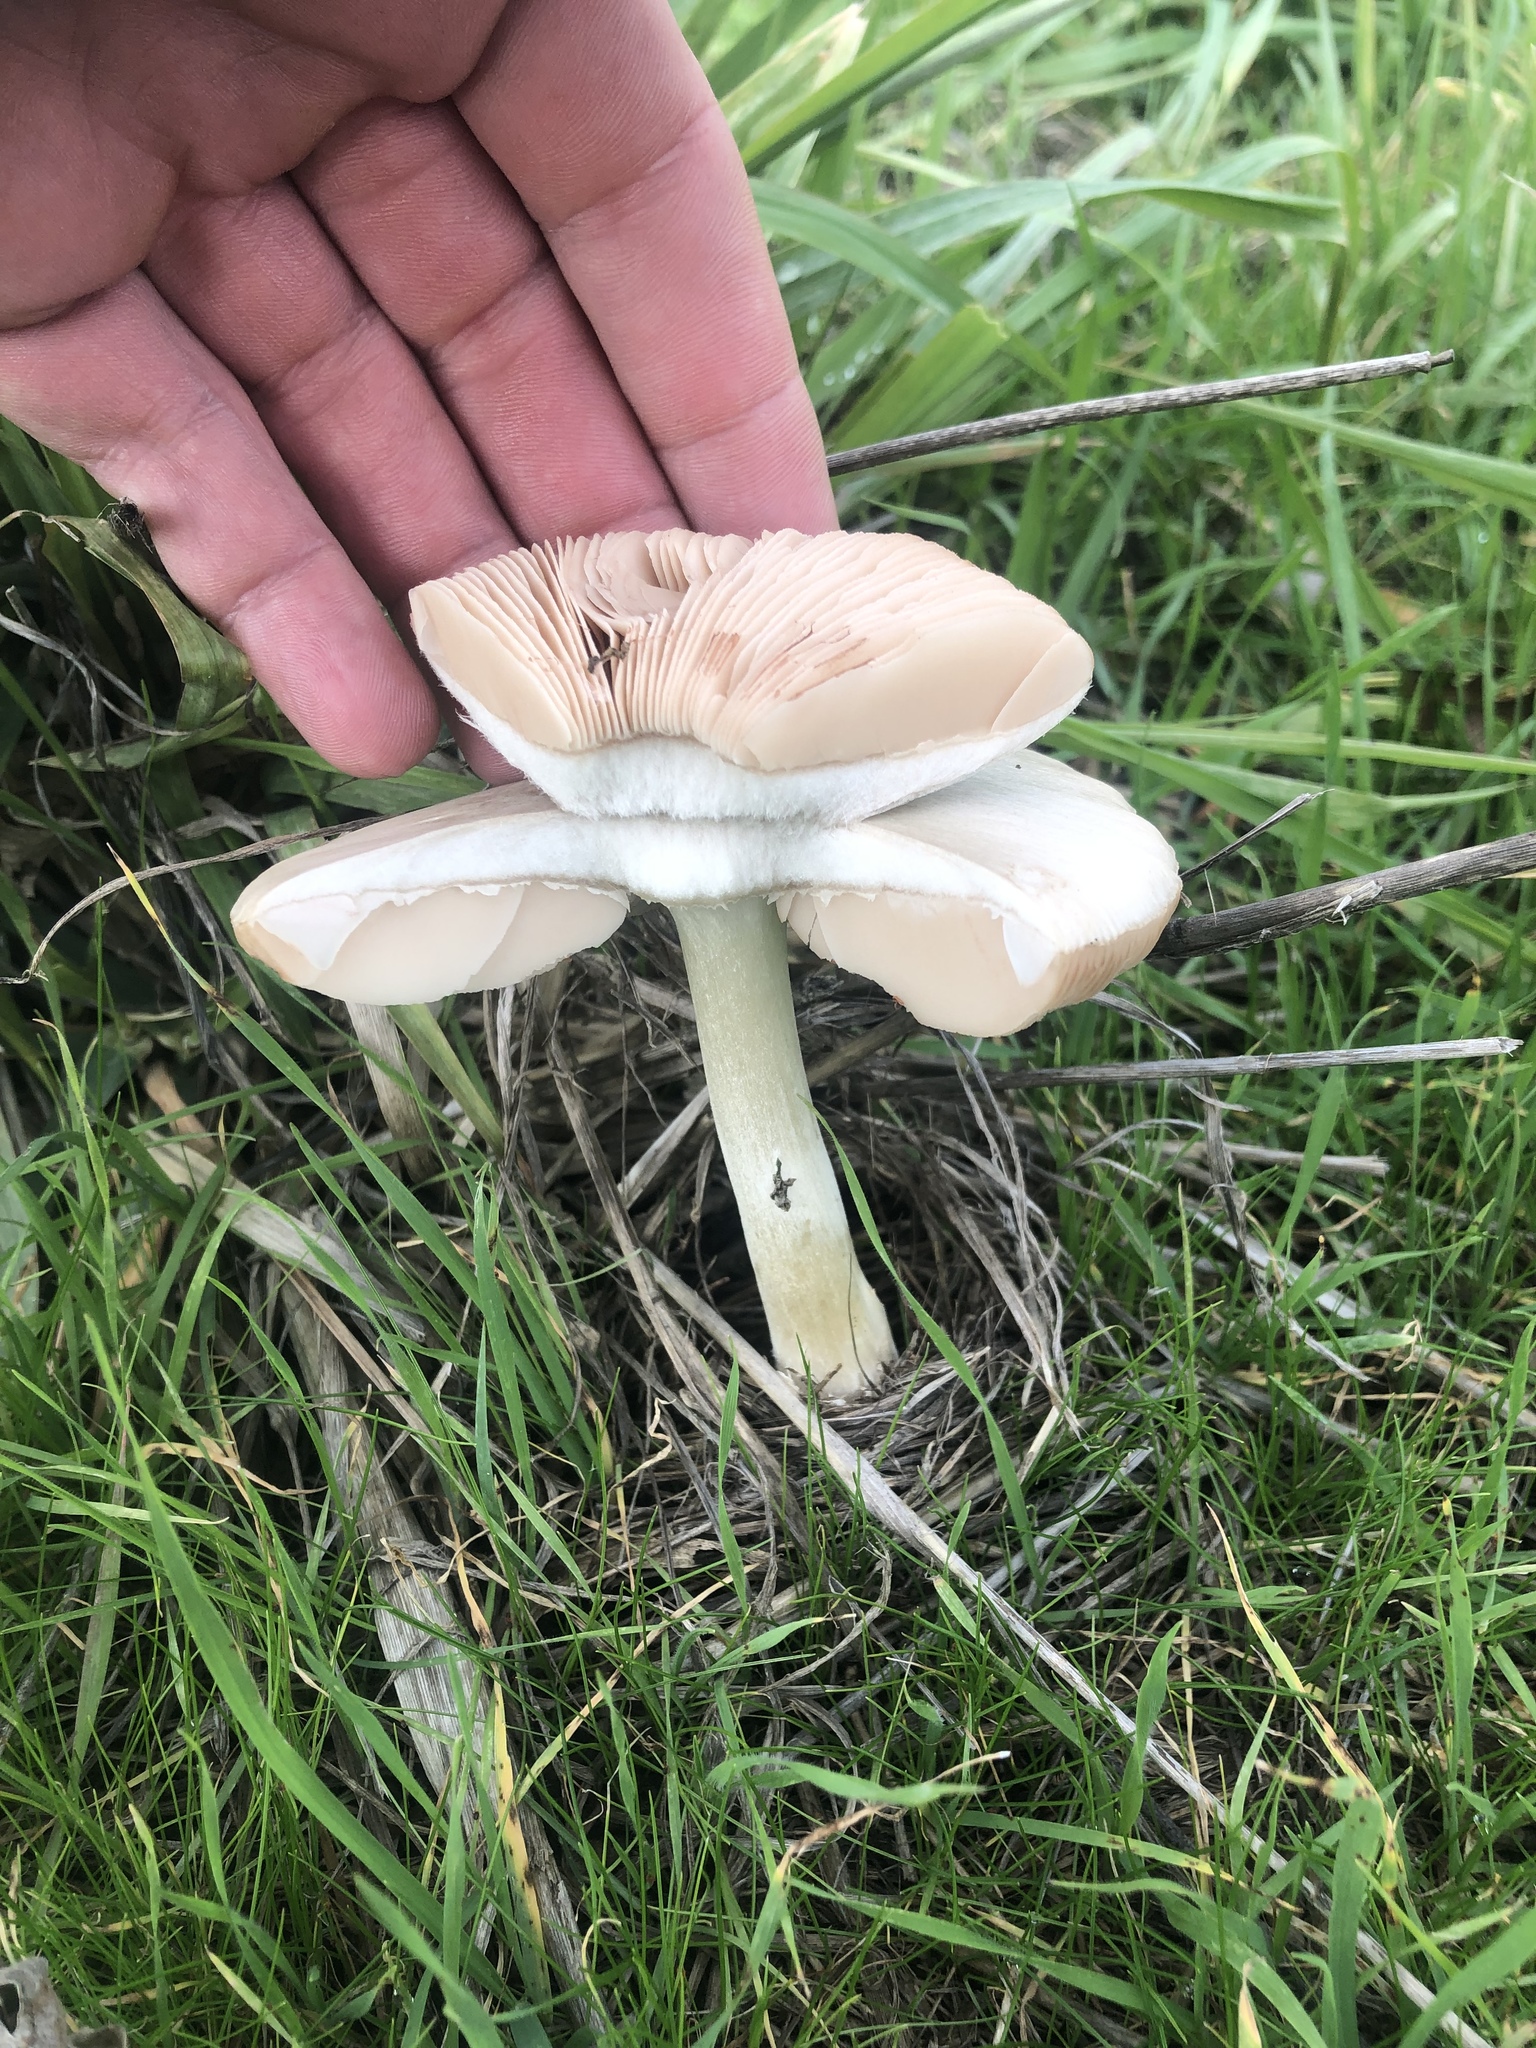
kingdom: Fungi
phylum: Basidiomycota
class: Agaricomycetes
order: Agaricales
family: Pluteaceae
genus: Volvopluteus
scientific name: Volvopluteus gloiocephalus
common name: Stubble rosegill
